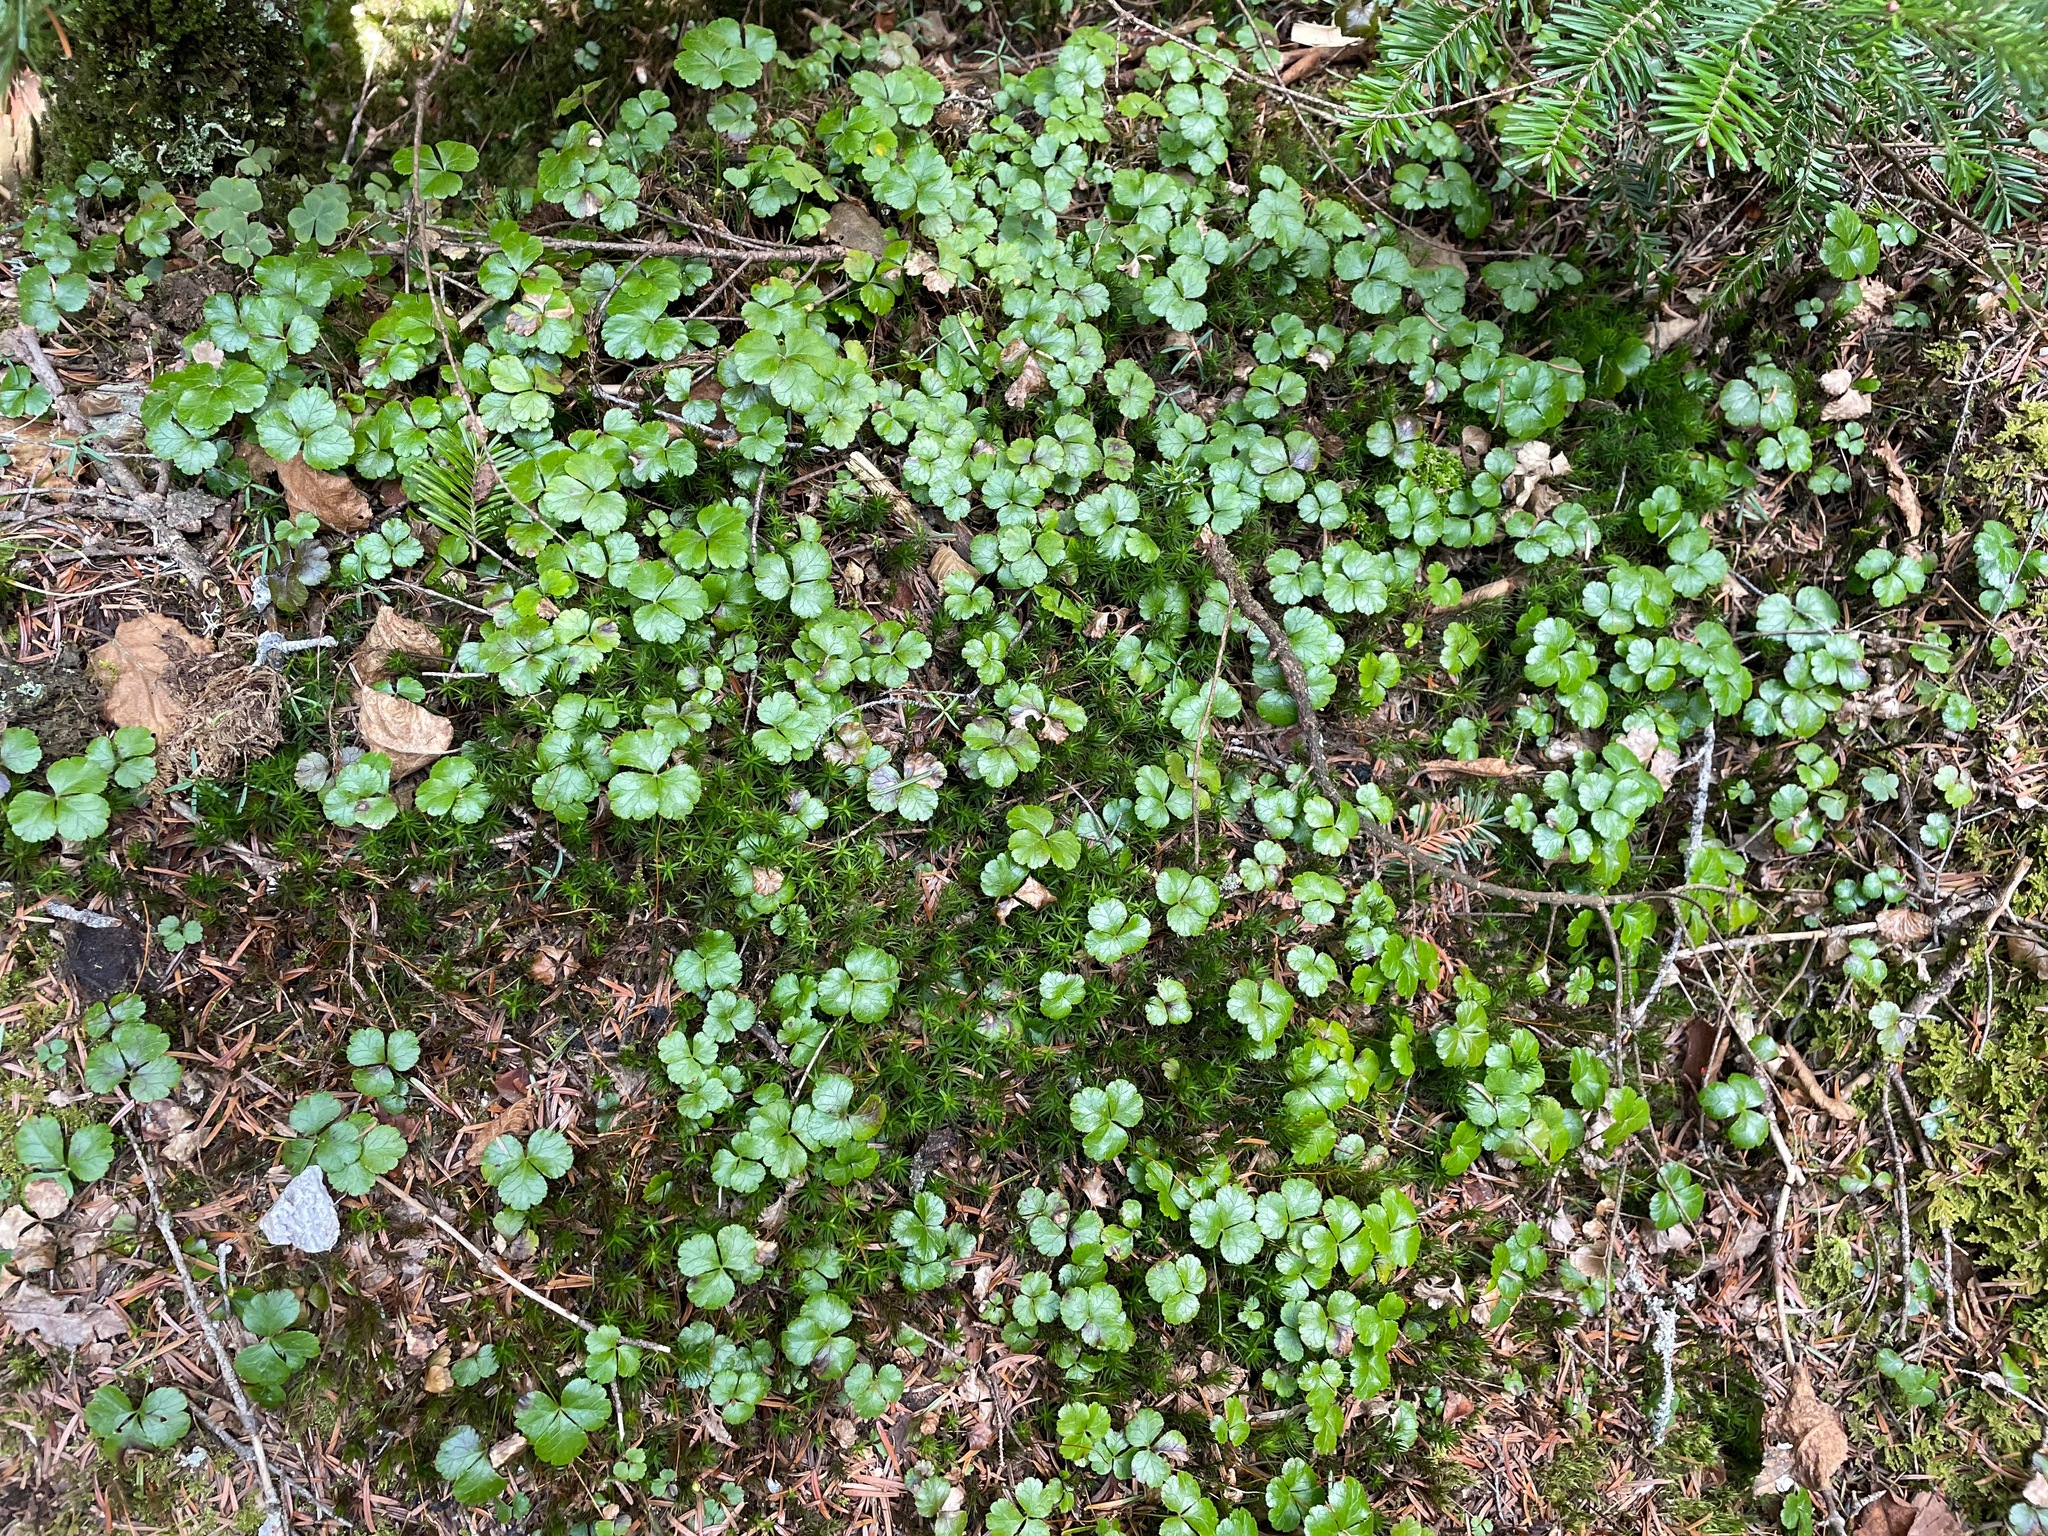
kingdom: Plantae
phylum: Tracheophyta
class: Magnoliopsida
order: Ranunculales
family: Ranunculaceae
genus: Coptis
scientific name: Coptis trifolia
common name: Canker-root
